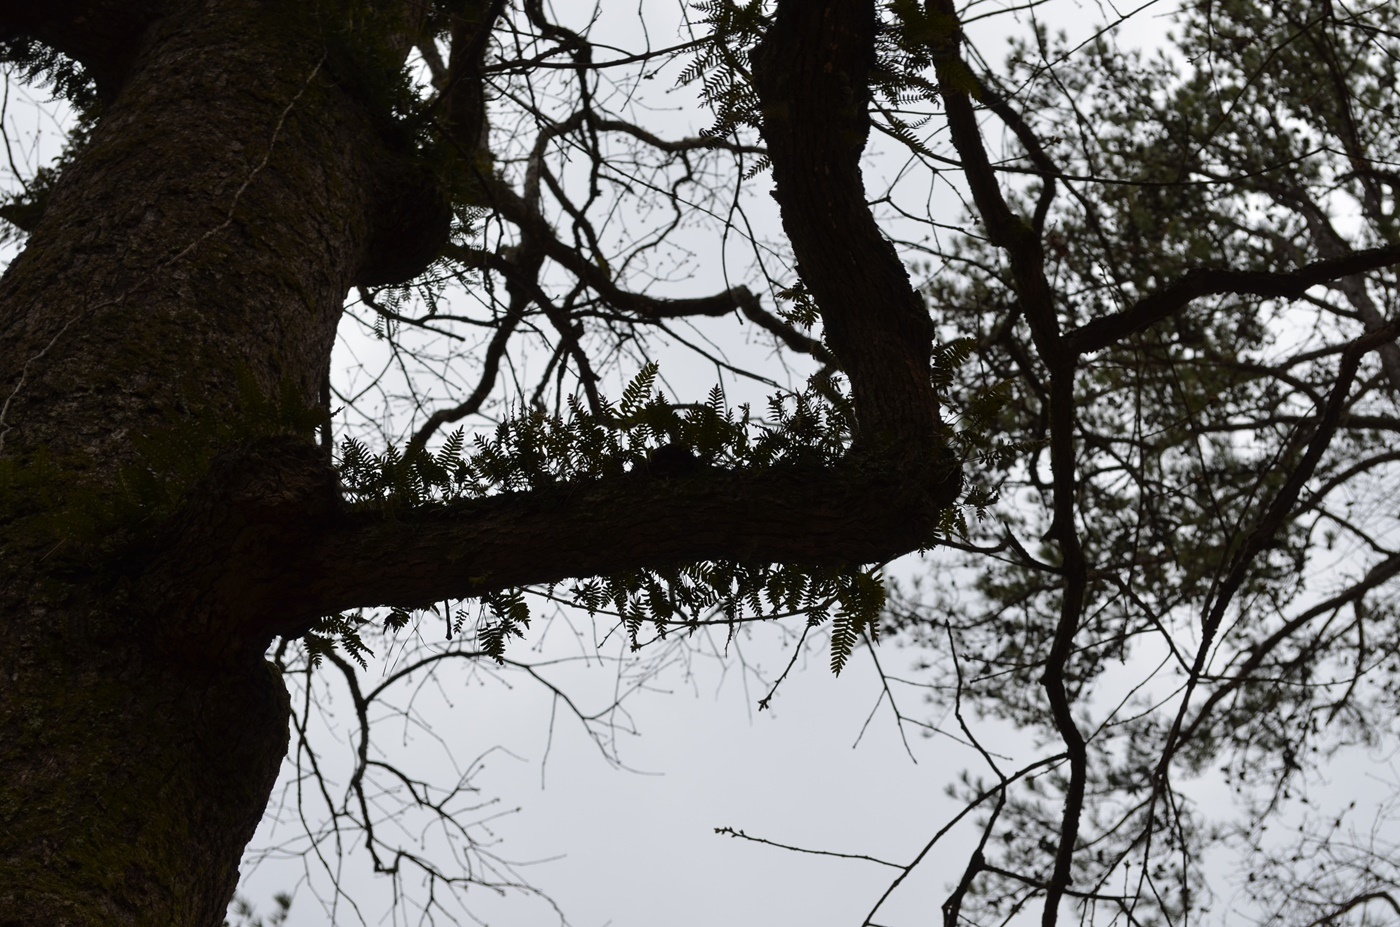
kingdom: Plantae
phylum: Tracheophyta
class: Polypodiopsida
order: Polypodiales
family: Polypodiaceae
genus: Pleopeltis
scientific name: Pleopeltis michauxiana
